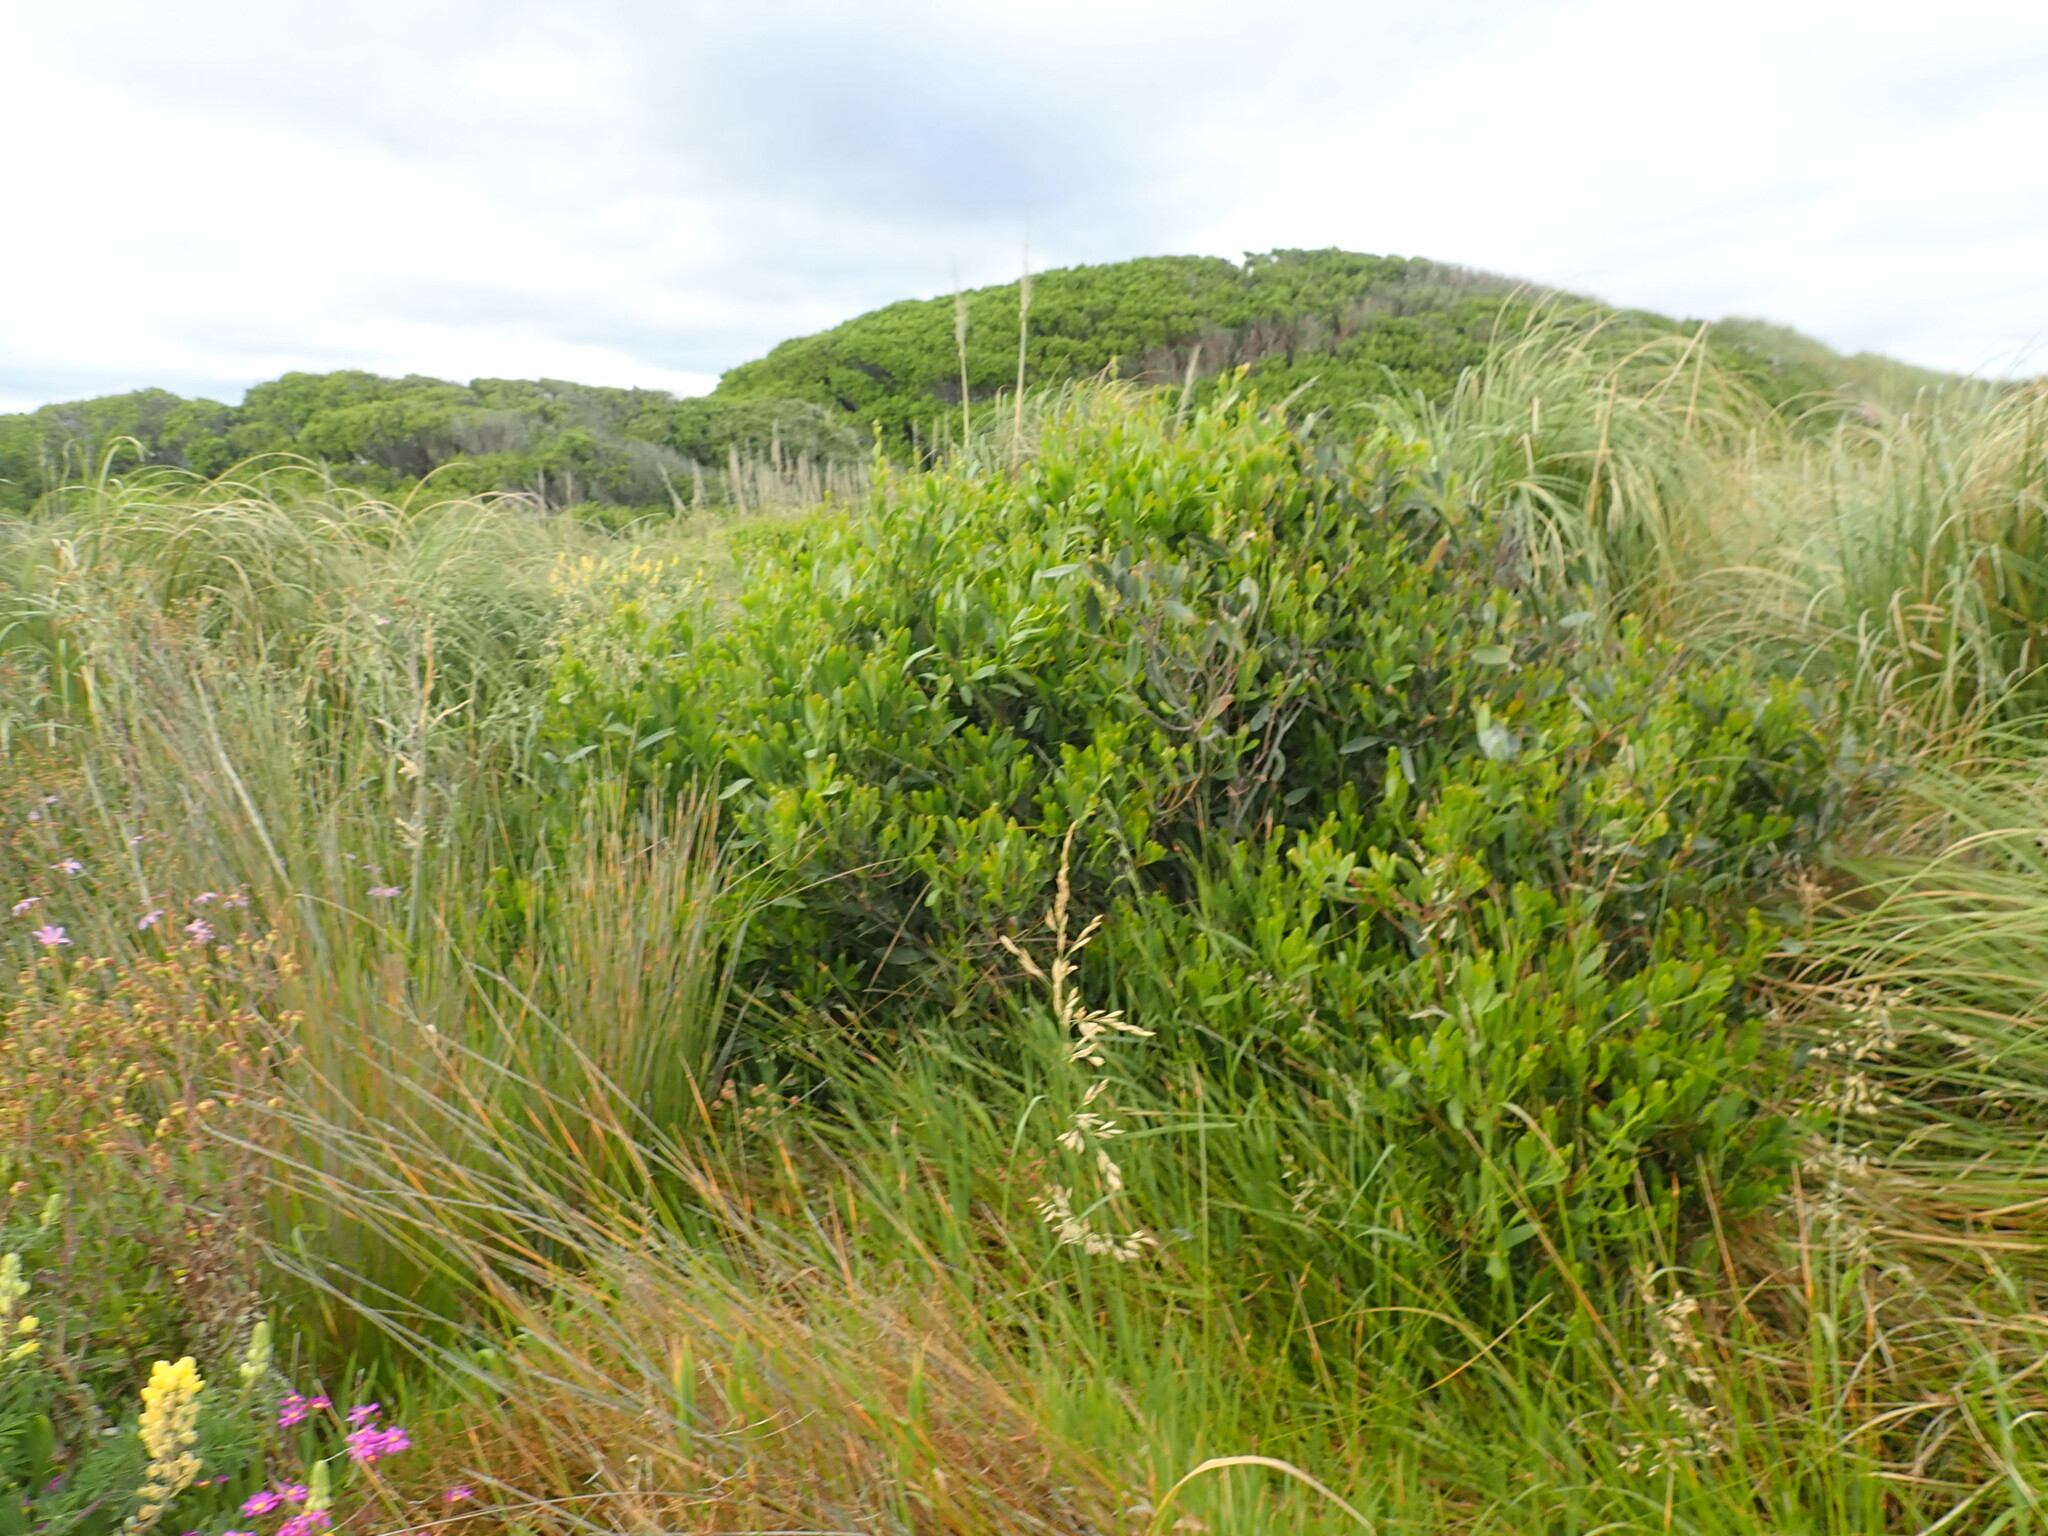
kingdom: Plantae
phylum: Tracheophyta
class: Magnoliopsida
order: Fabales
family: Fabaceae
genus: Acacia
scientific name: Acacia longifolia
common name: Sydney golden wattle
